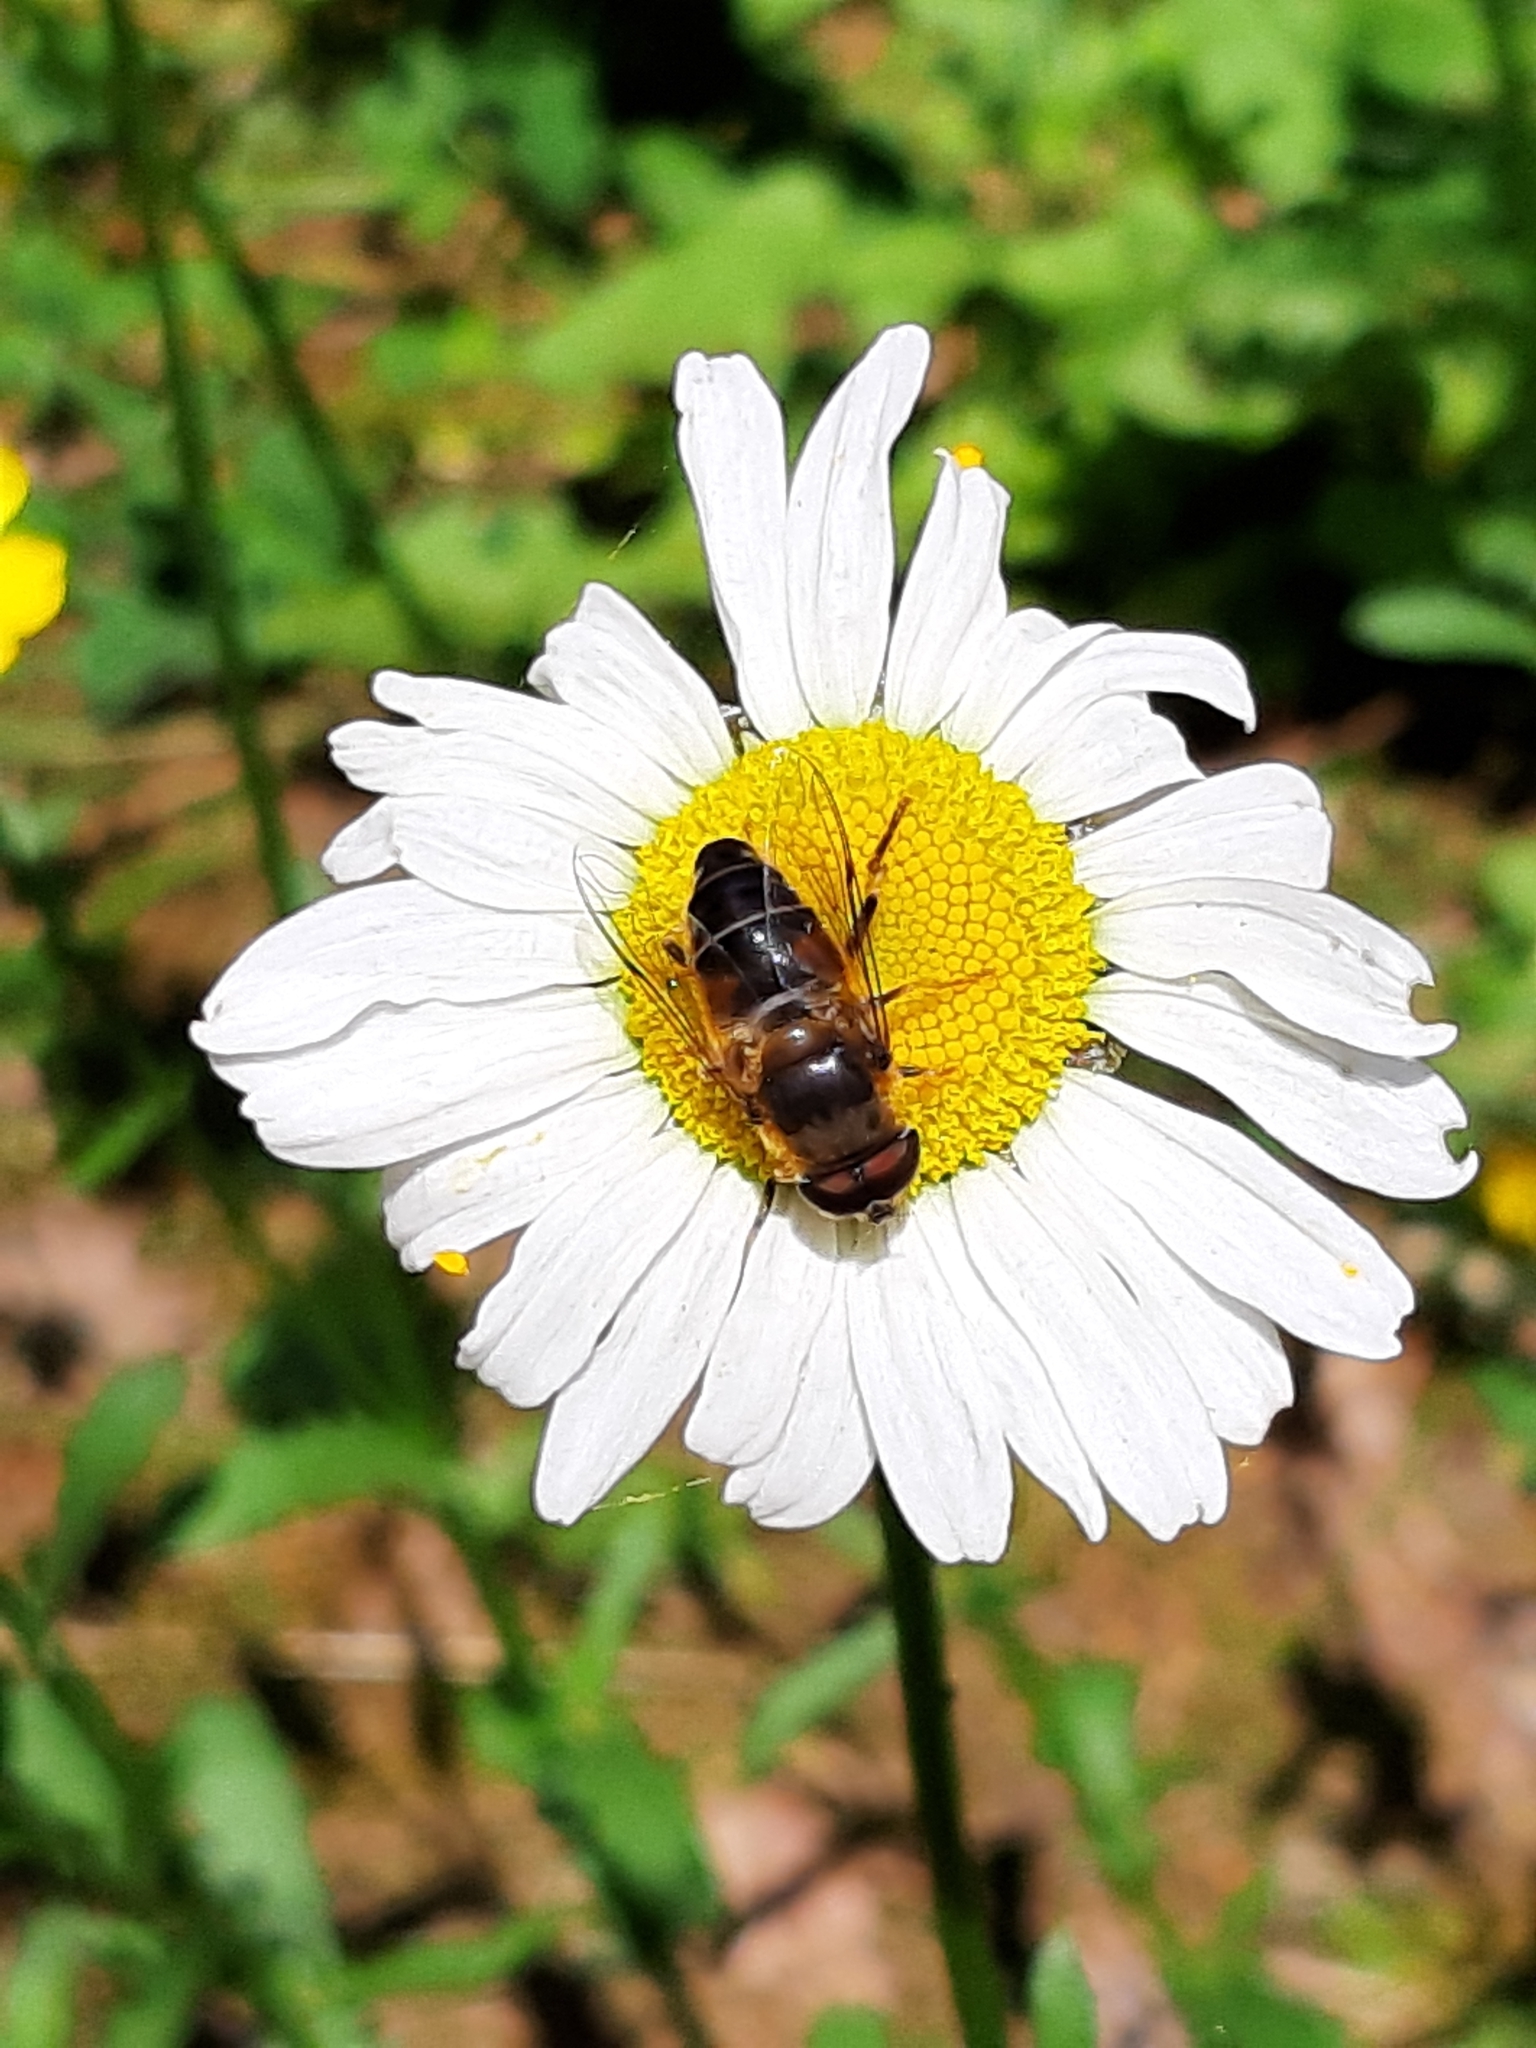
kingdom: Animalia
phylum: Arthropoda
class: Insecta
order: Diptera
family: Syrphidae
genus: Eristalis
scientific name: Eristalis tenax
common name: Drone fly
